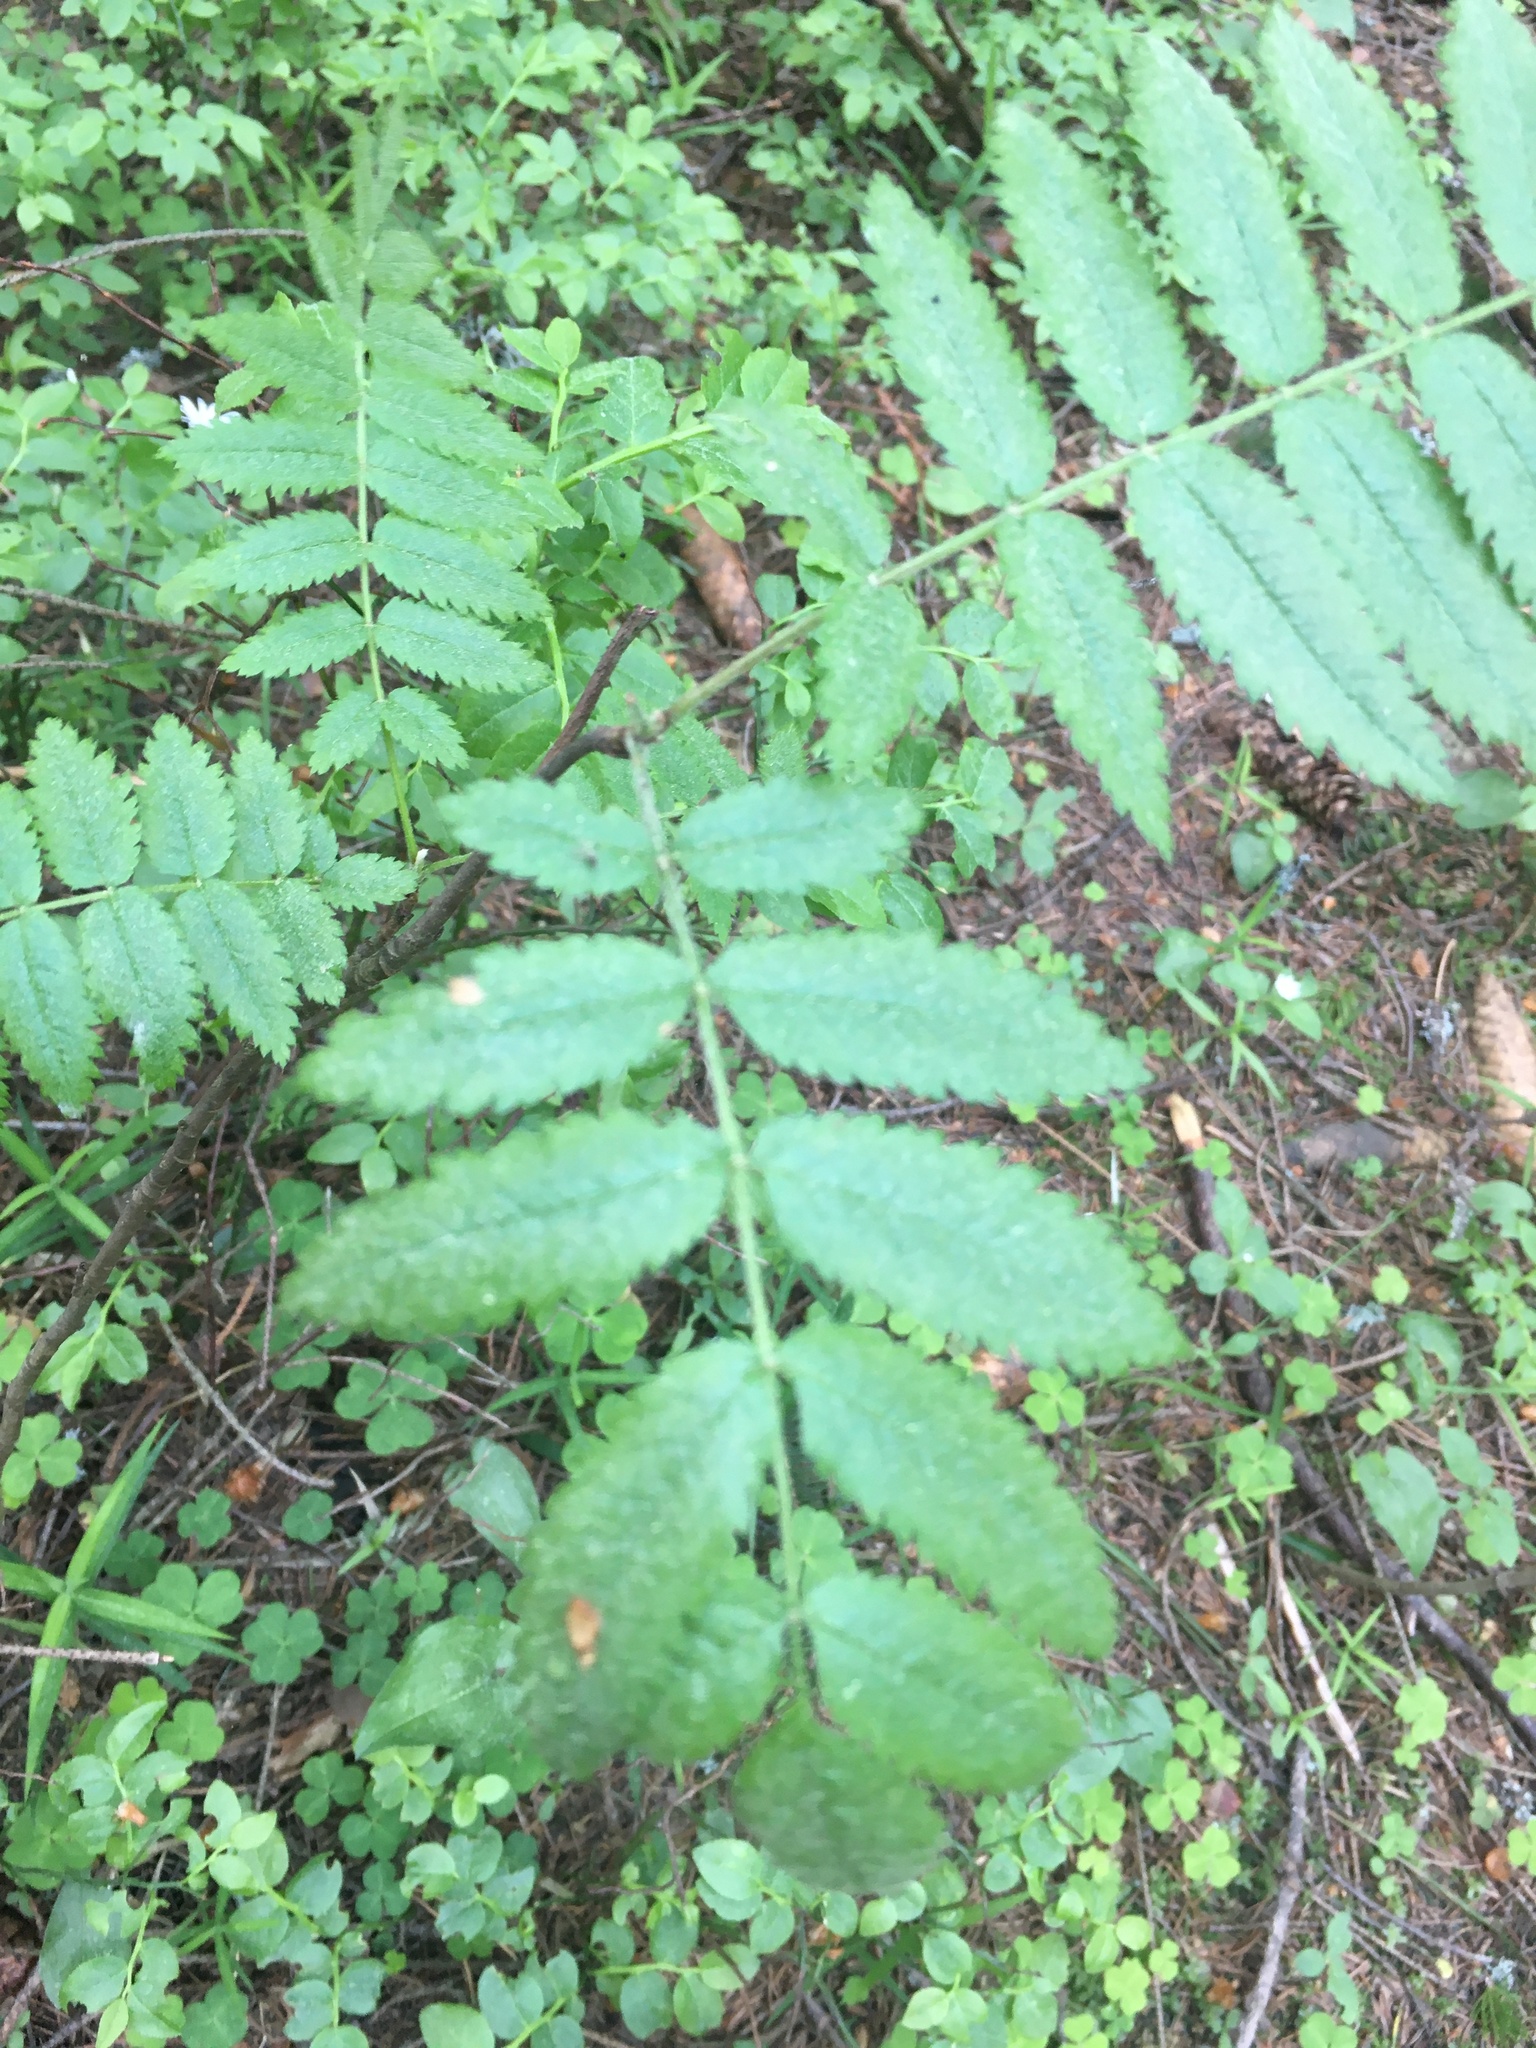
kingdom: Plantae
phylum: Tracheophyta
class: Magnoliopsida
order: Rosales
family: Rosaceae
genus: Sorbus
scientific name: Sorbus aucuparia
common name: Rowan
